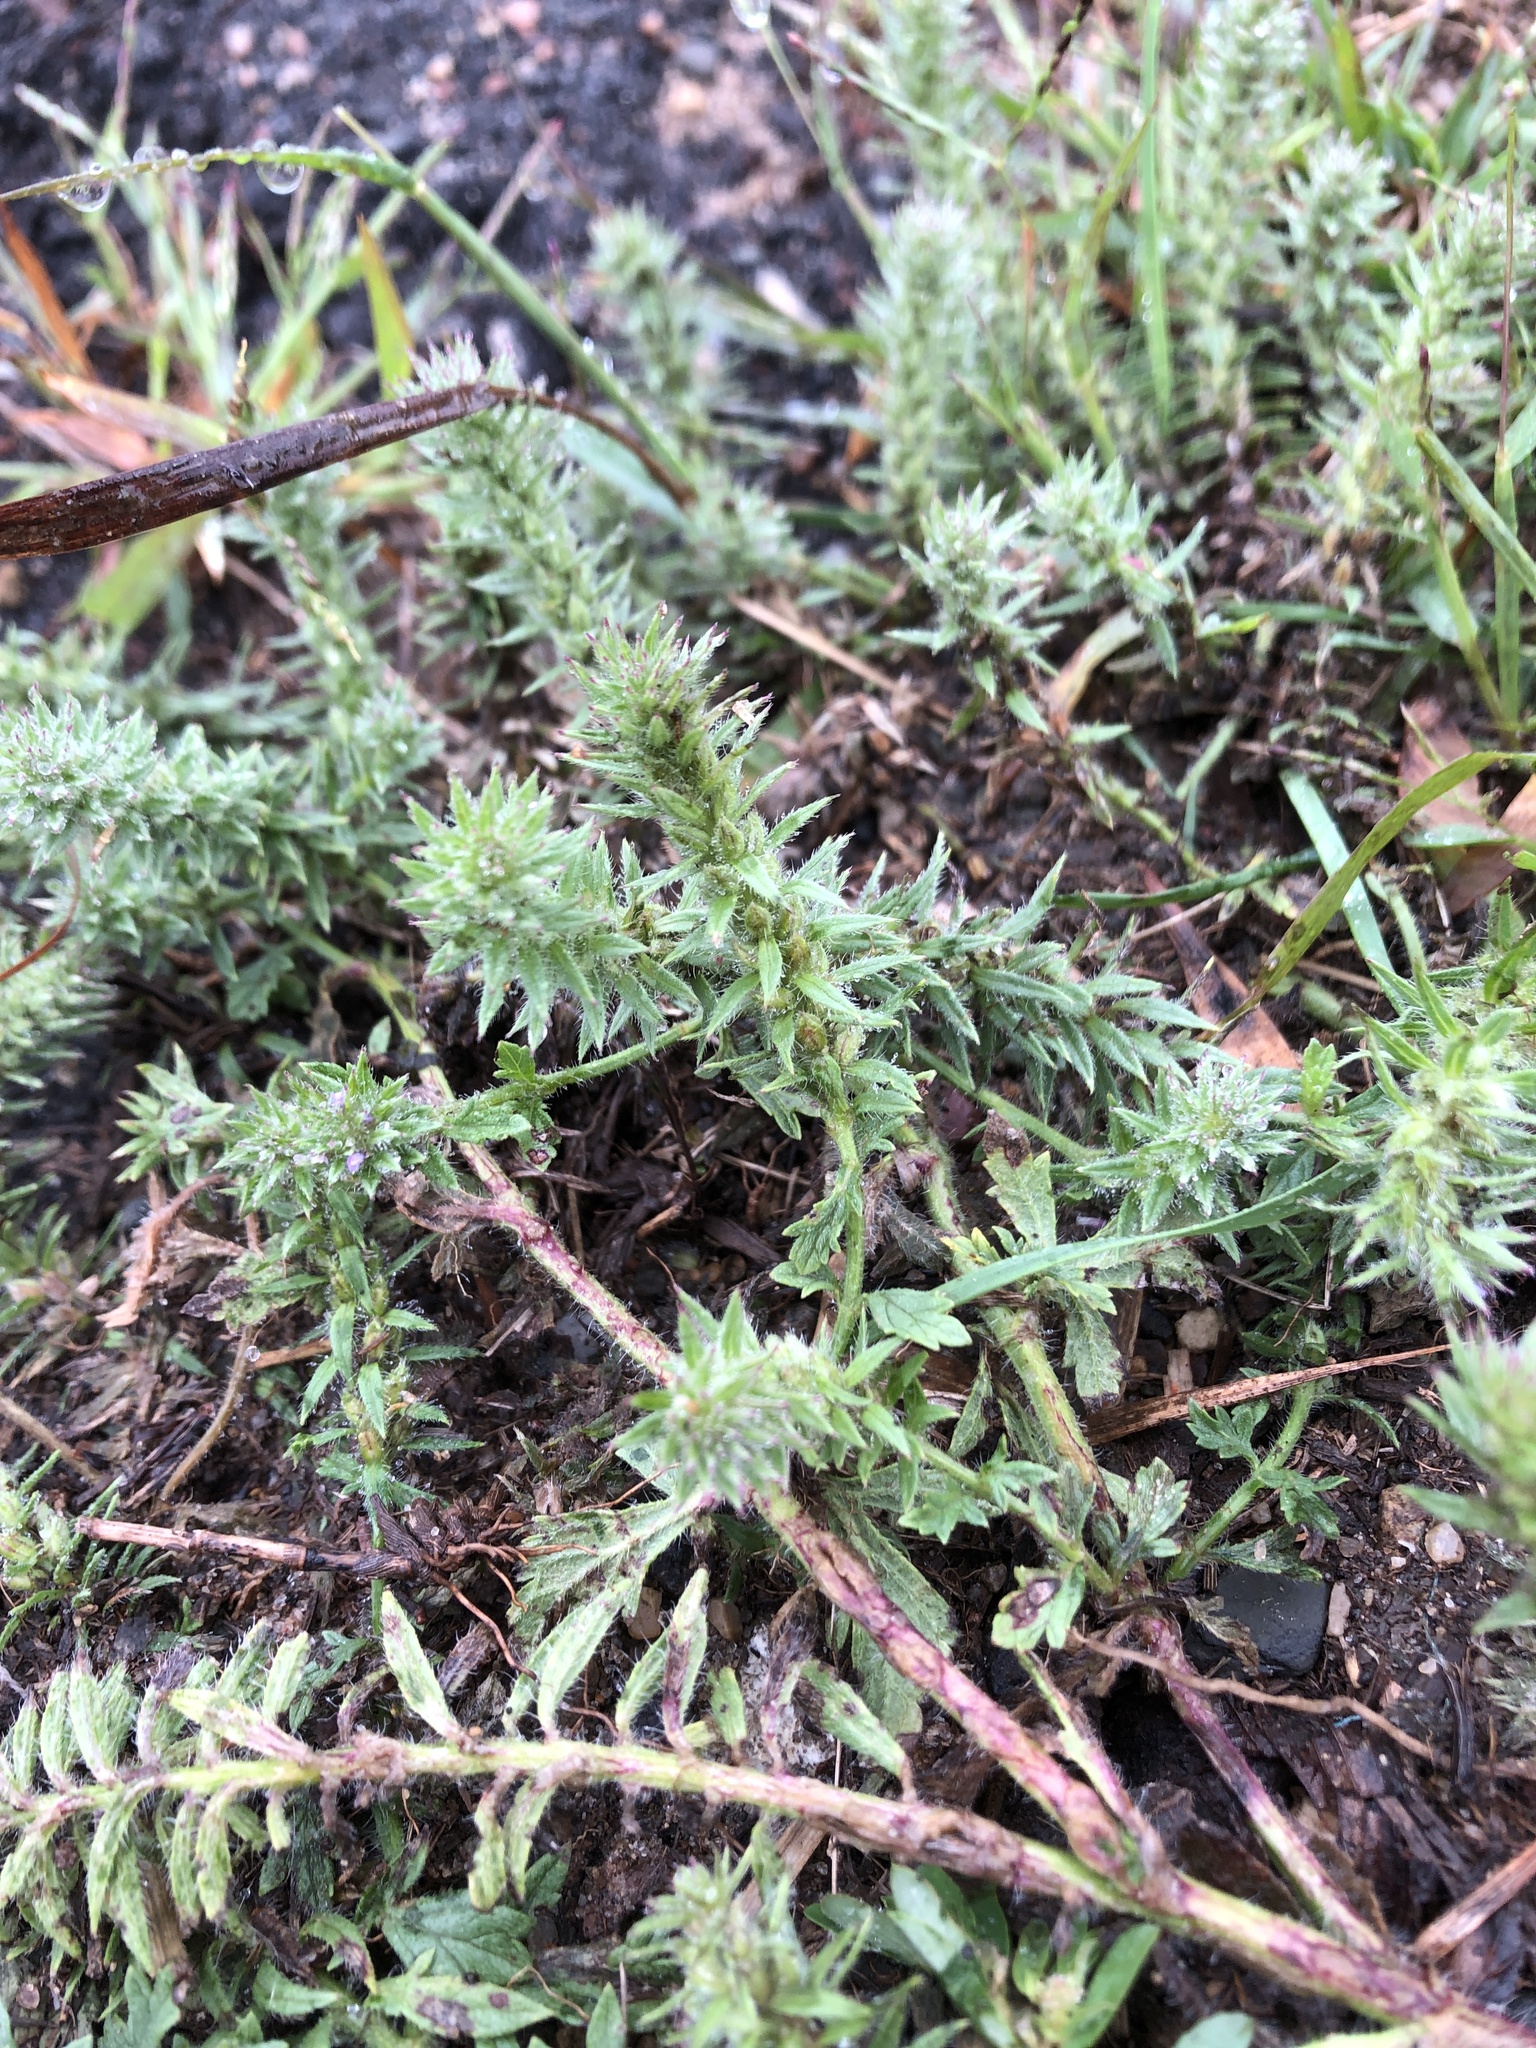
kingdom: Plantae
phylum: Tracheophyta
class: Magnoliopsida
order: Lamiales
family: Verbenaceae
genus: Verbena
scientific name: Verbena bracteata
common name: Bracted vervain
